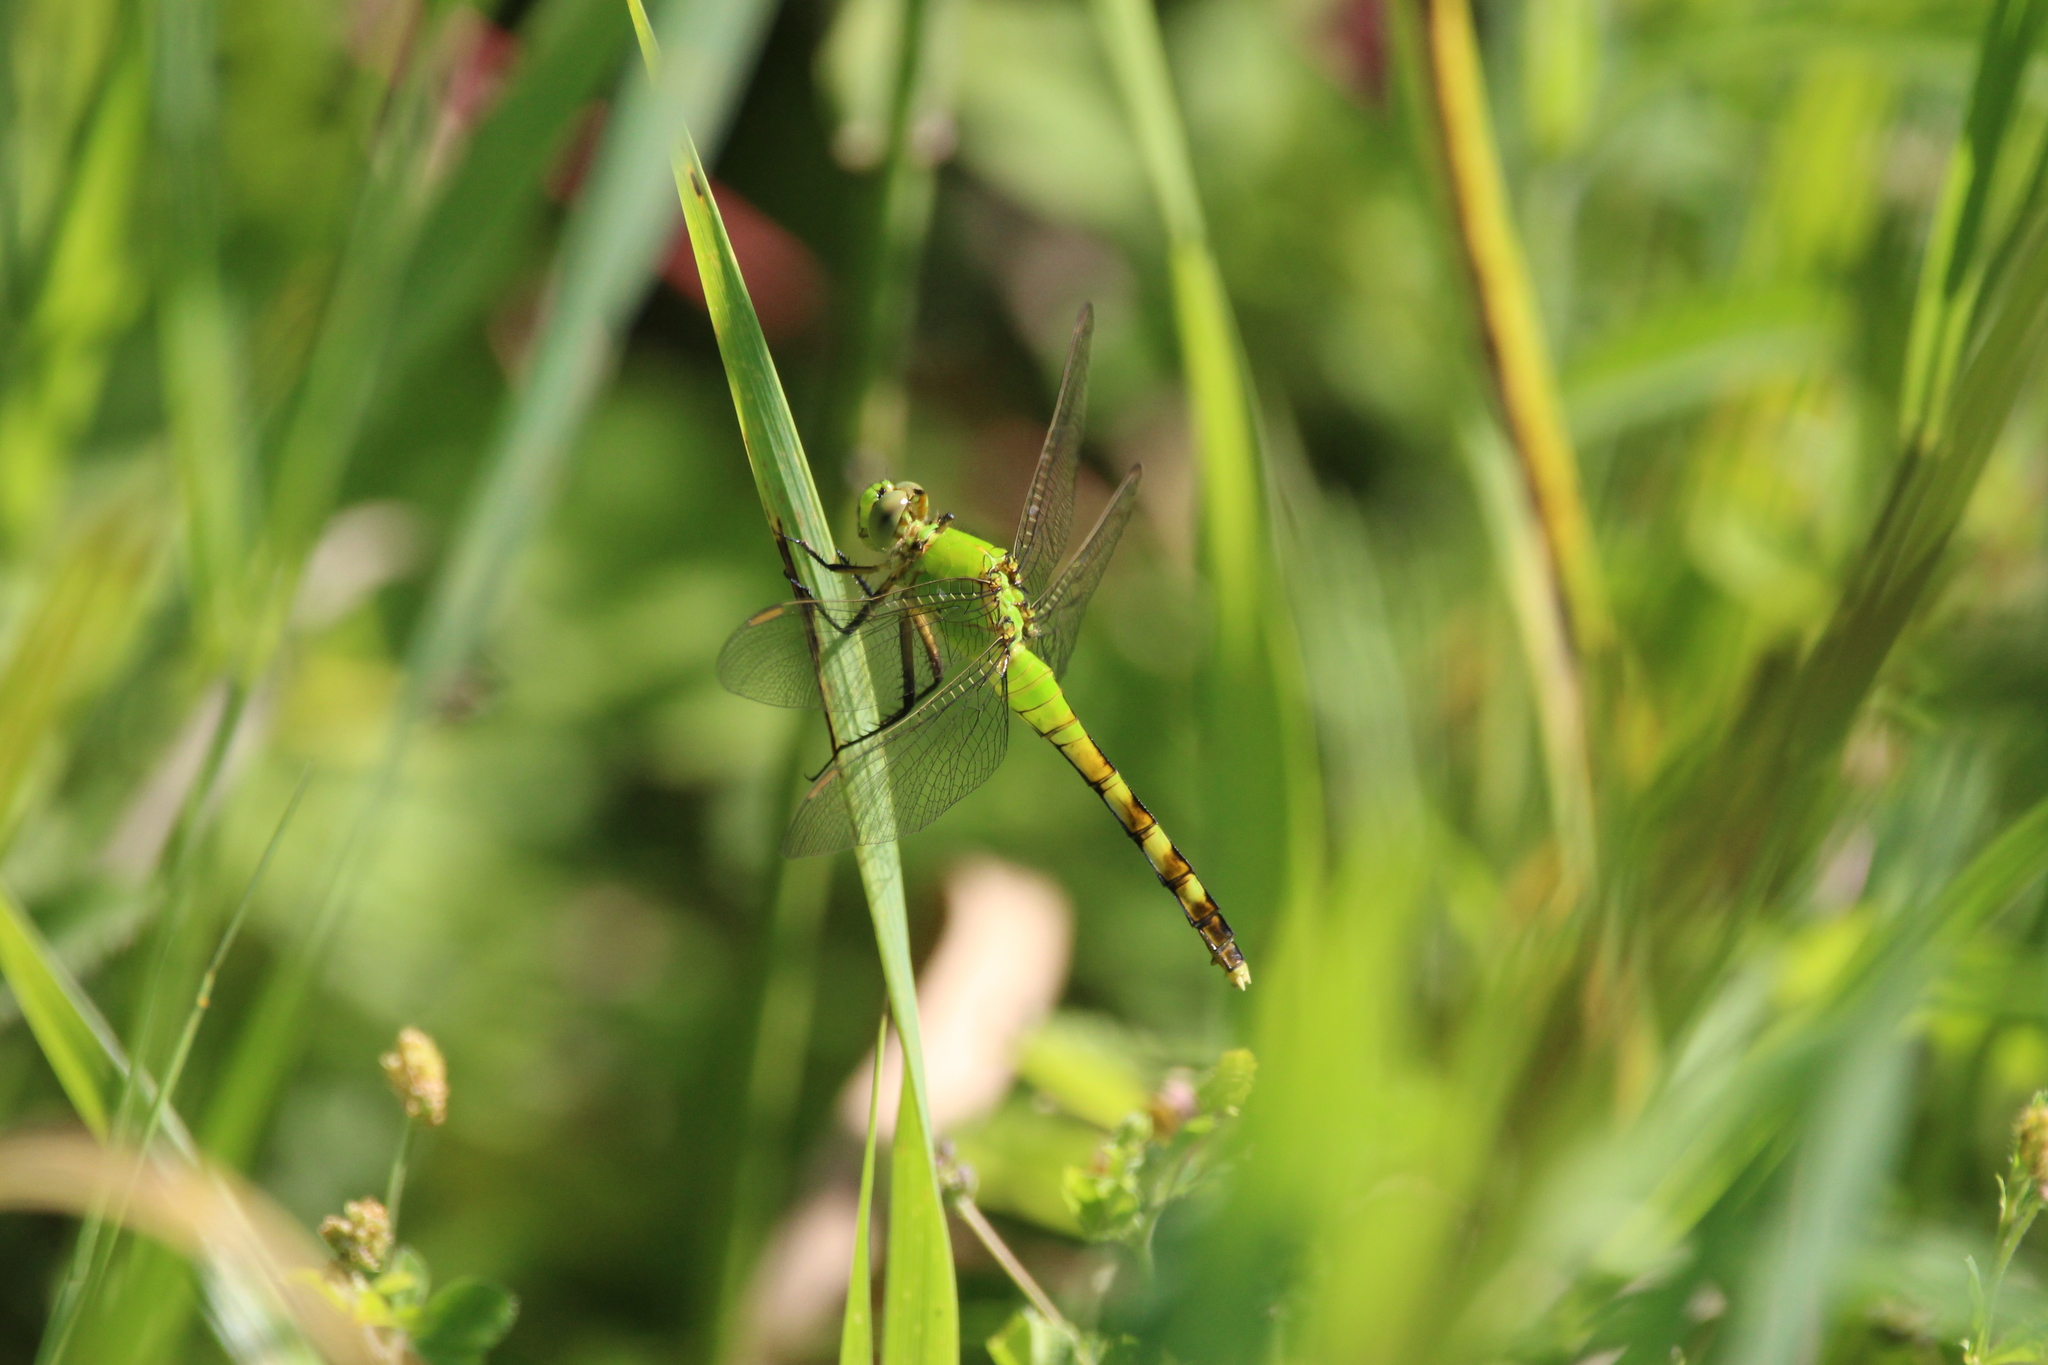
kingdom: Animalia
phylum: Arthropoda
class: Insecta
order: Odonata
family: Libellulidae
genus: Erythemis
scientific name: Erythemis simplicicollis
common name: Eastern pondhawk
